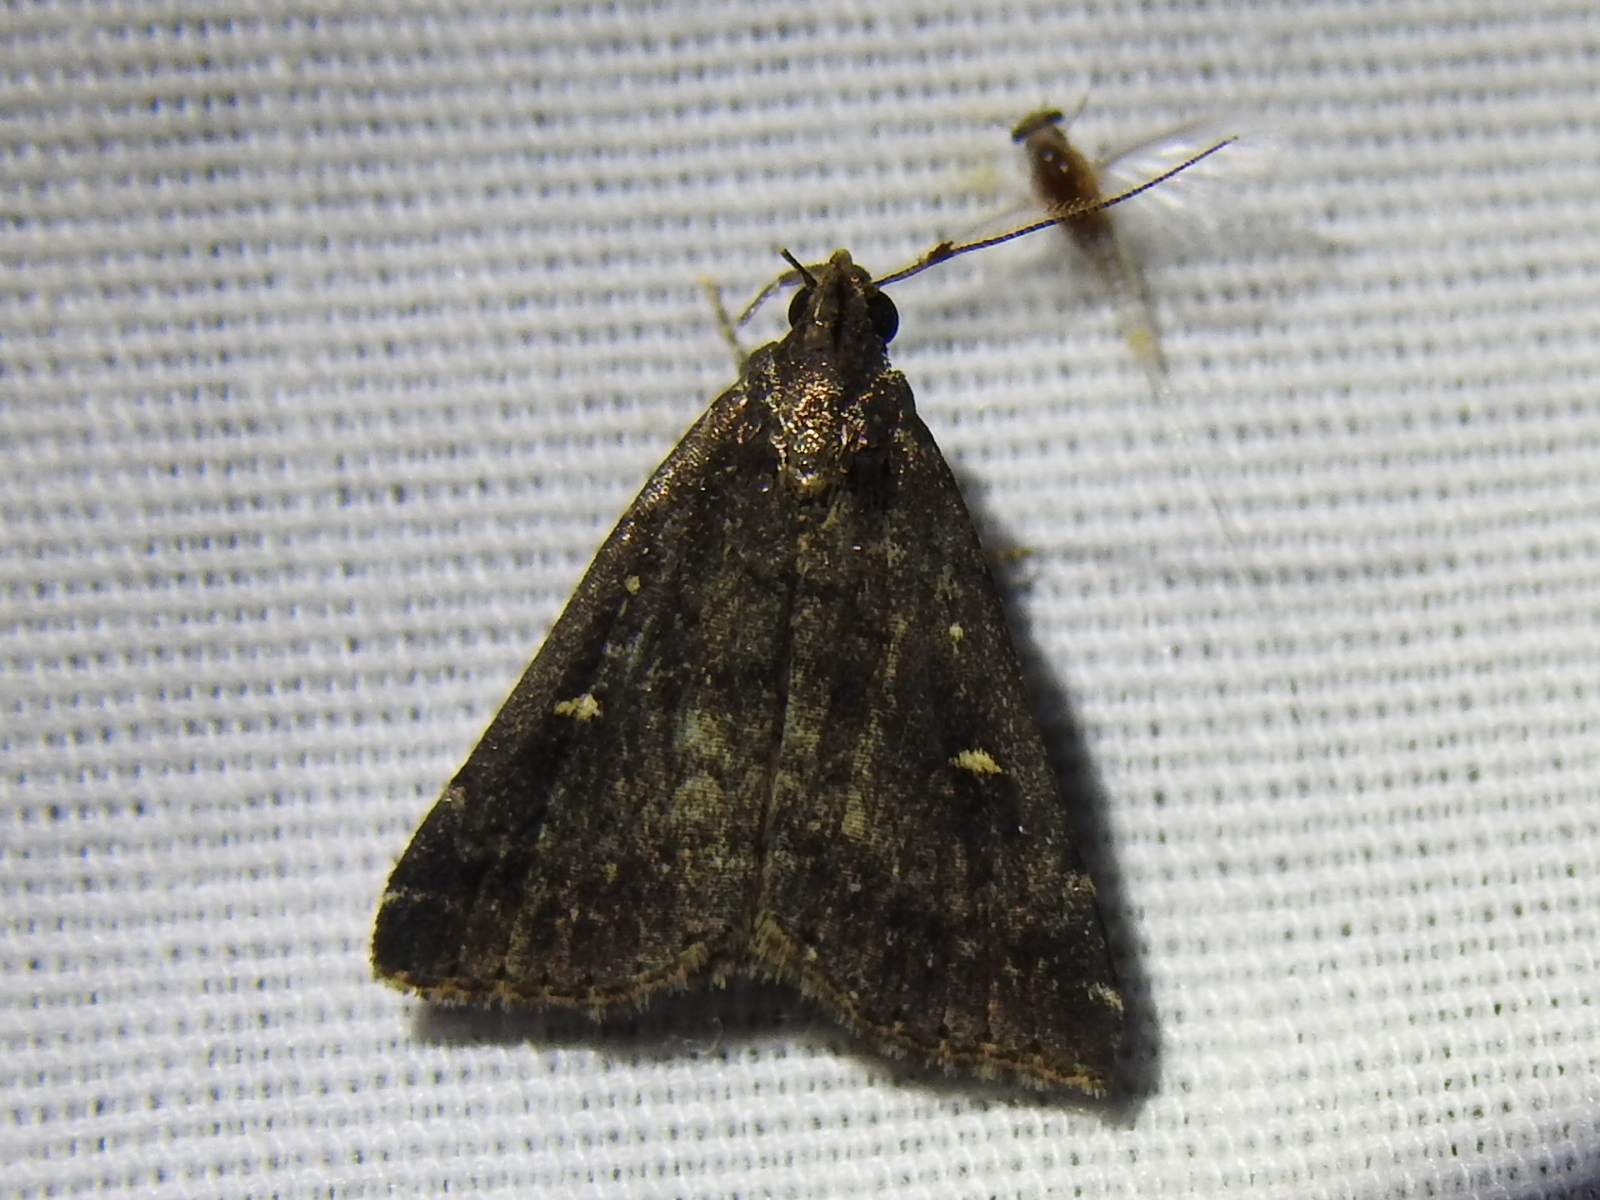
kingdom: Animalia
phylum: Arthropoda
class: Insecta
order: Lepidoptera
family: Erebidae
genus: Tetanolita
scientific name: Tetanolita mynesalis
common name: Smoky tetanolita moth
